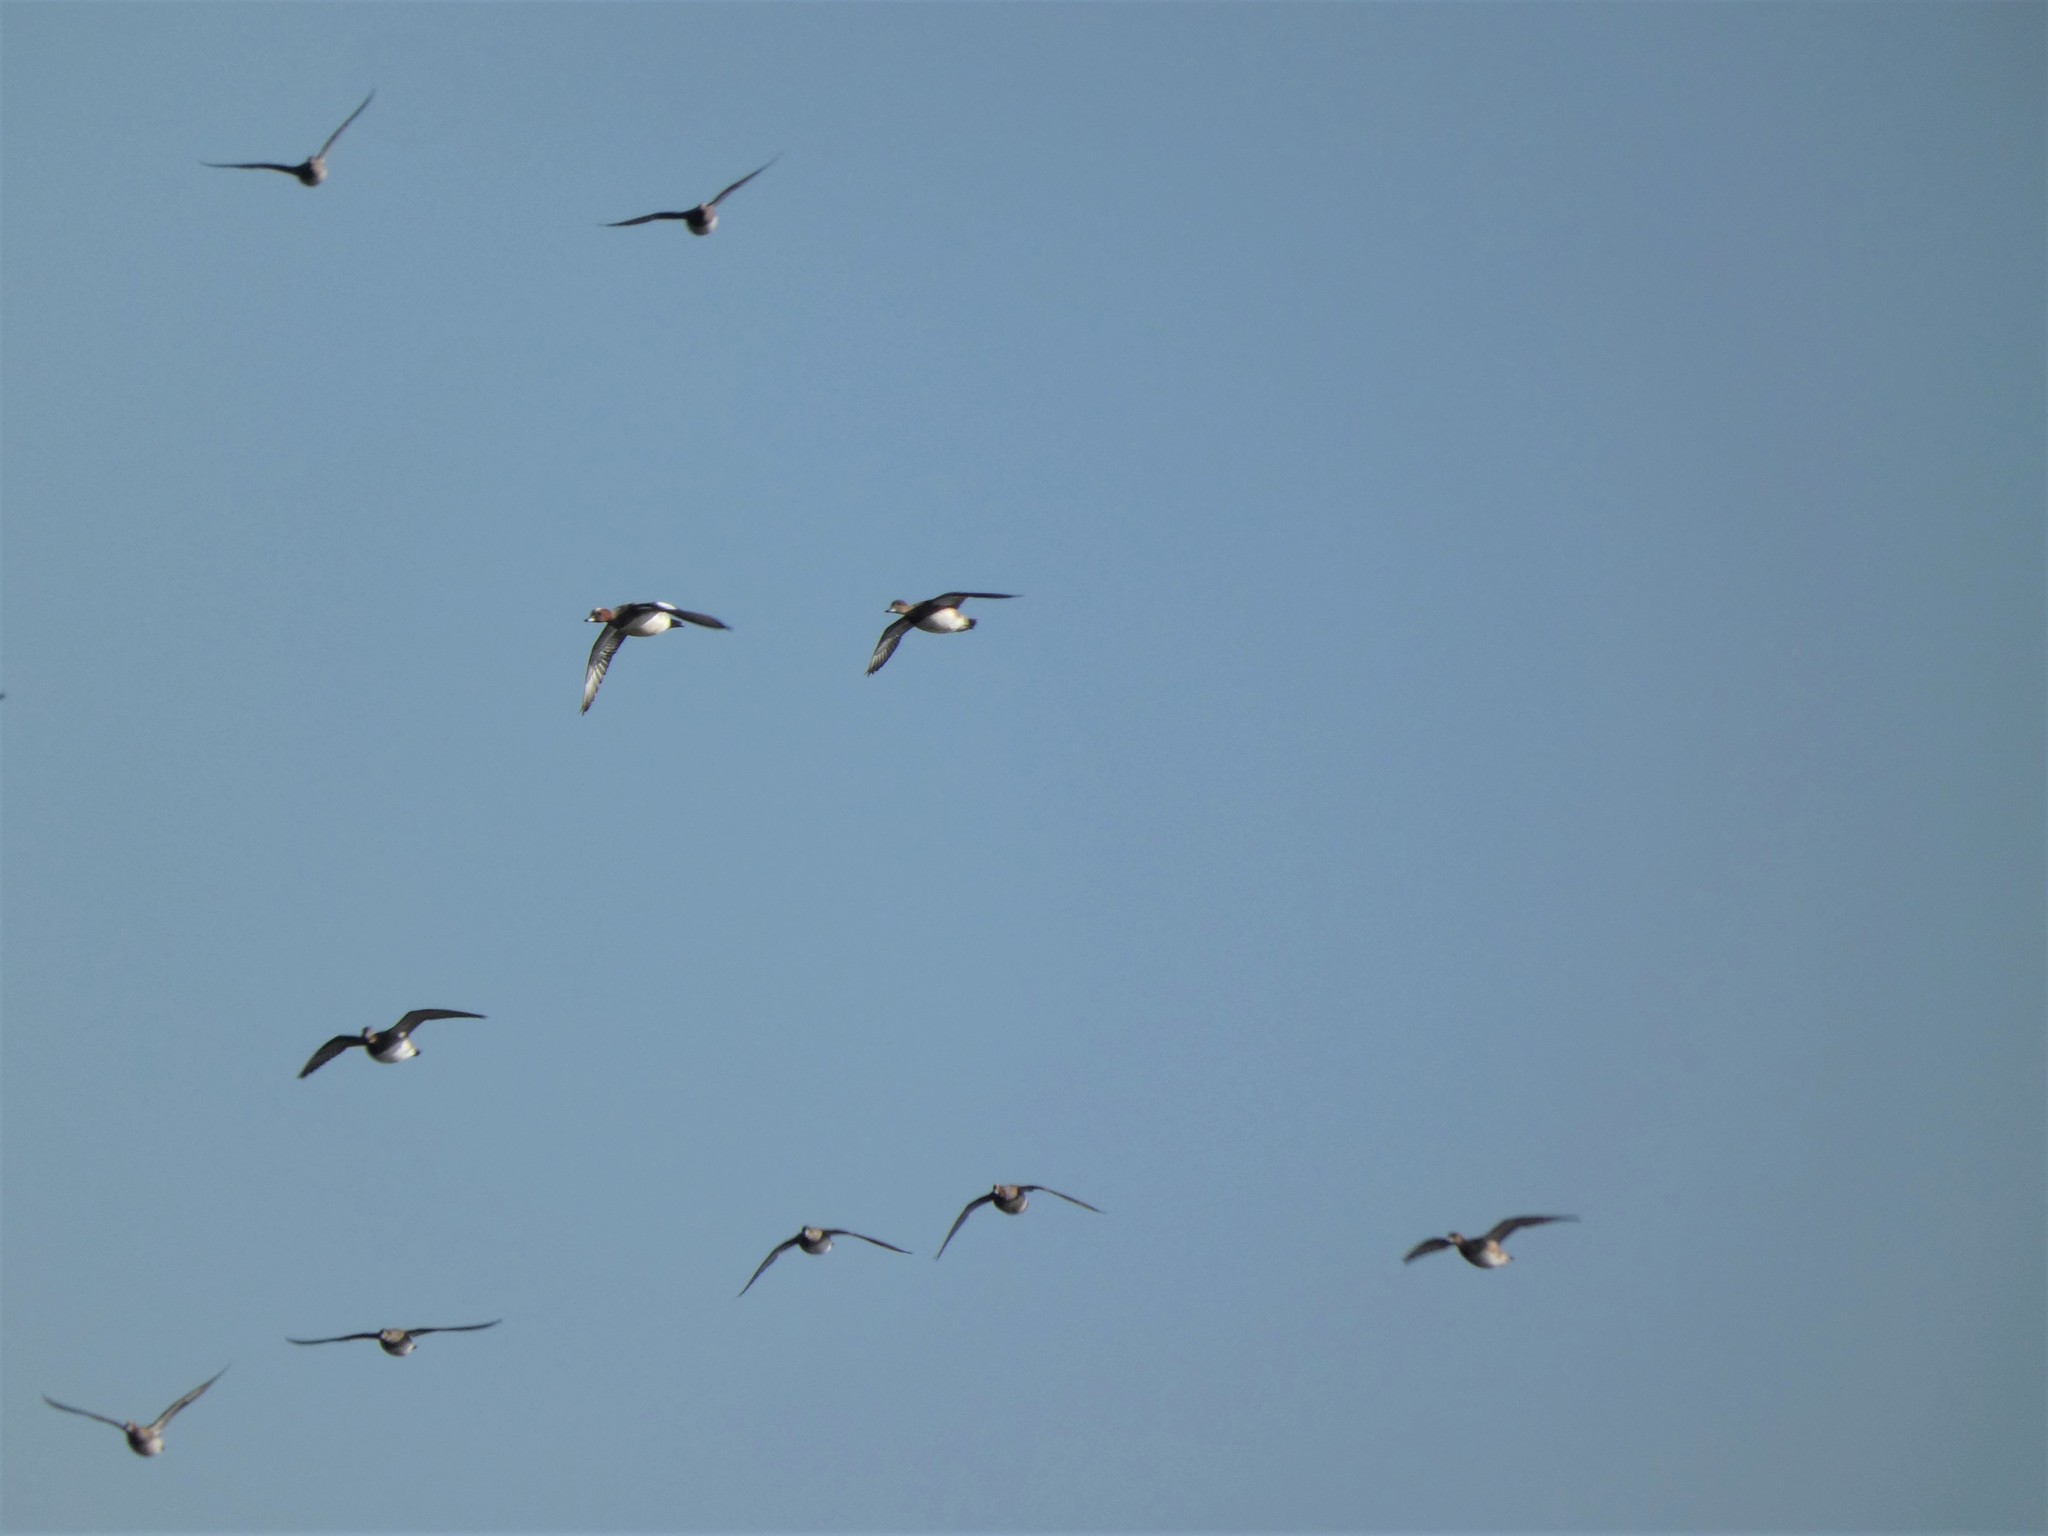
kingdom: Animalia
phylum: Chordata
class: Aves
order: Anseriformes
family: Anatidae
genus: Mareca
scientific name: Mareca penelope
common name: Eurasian wigeon
